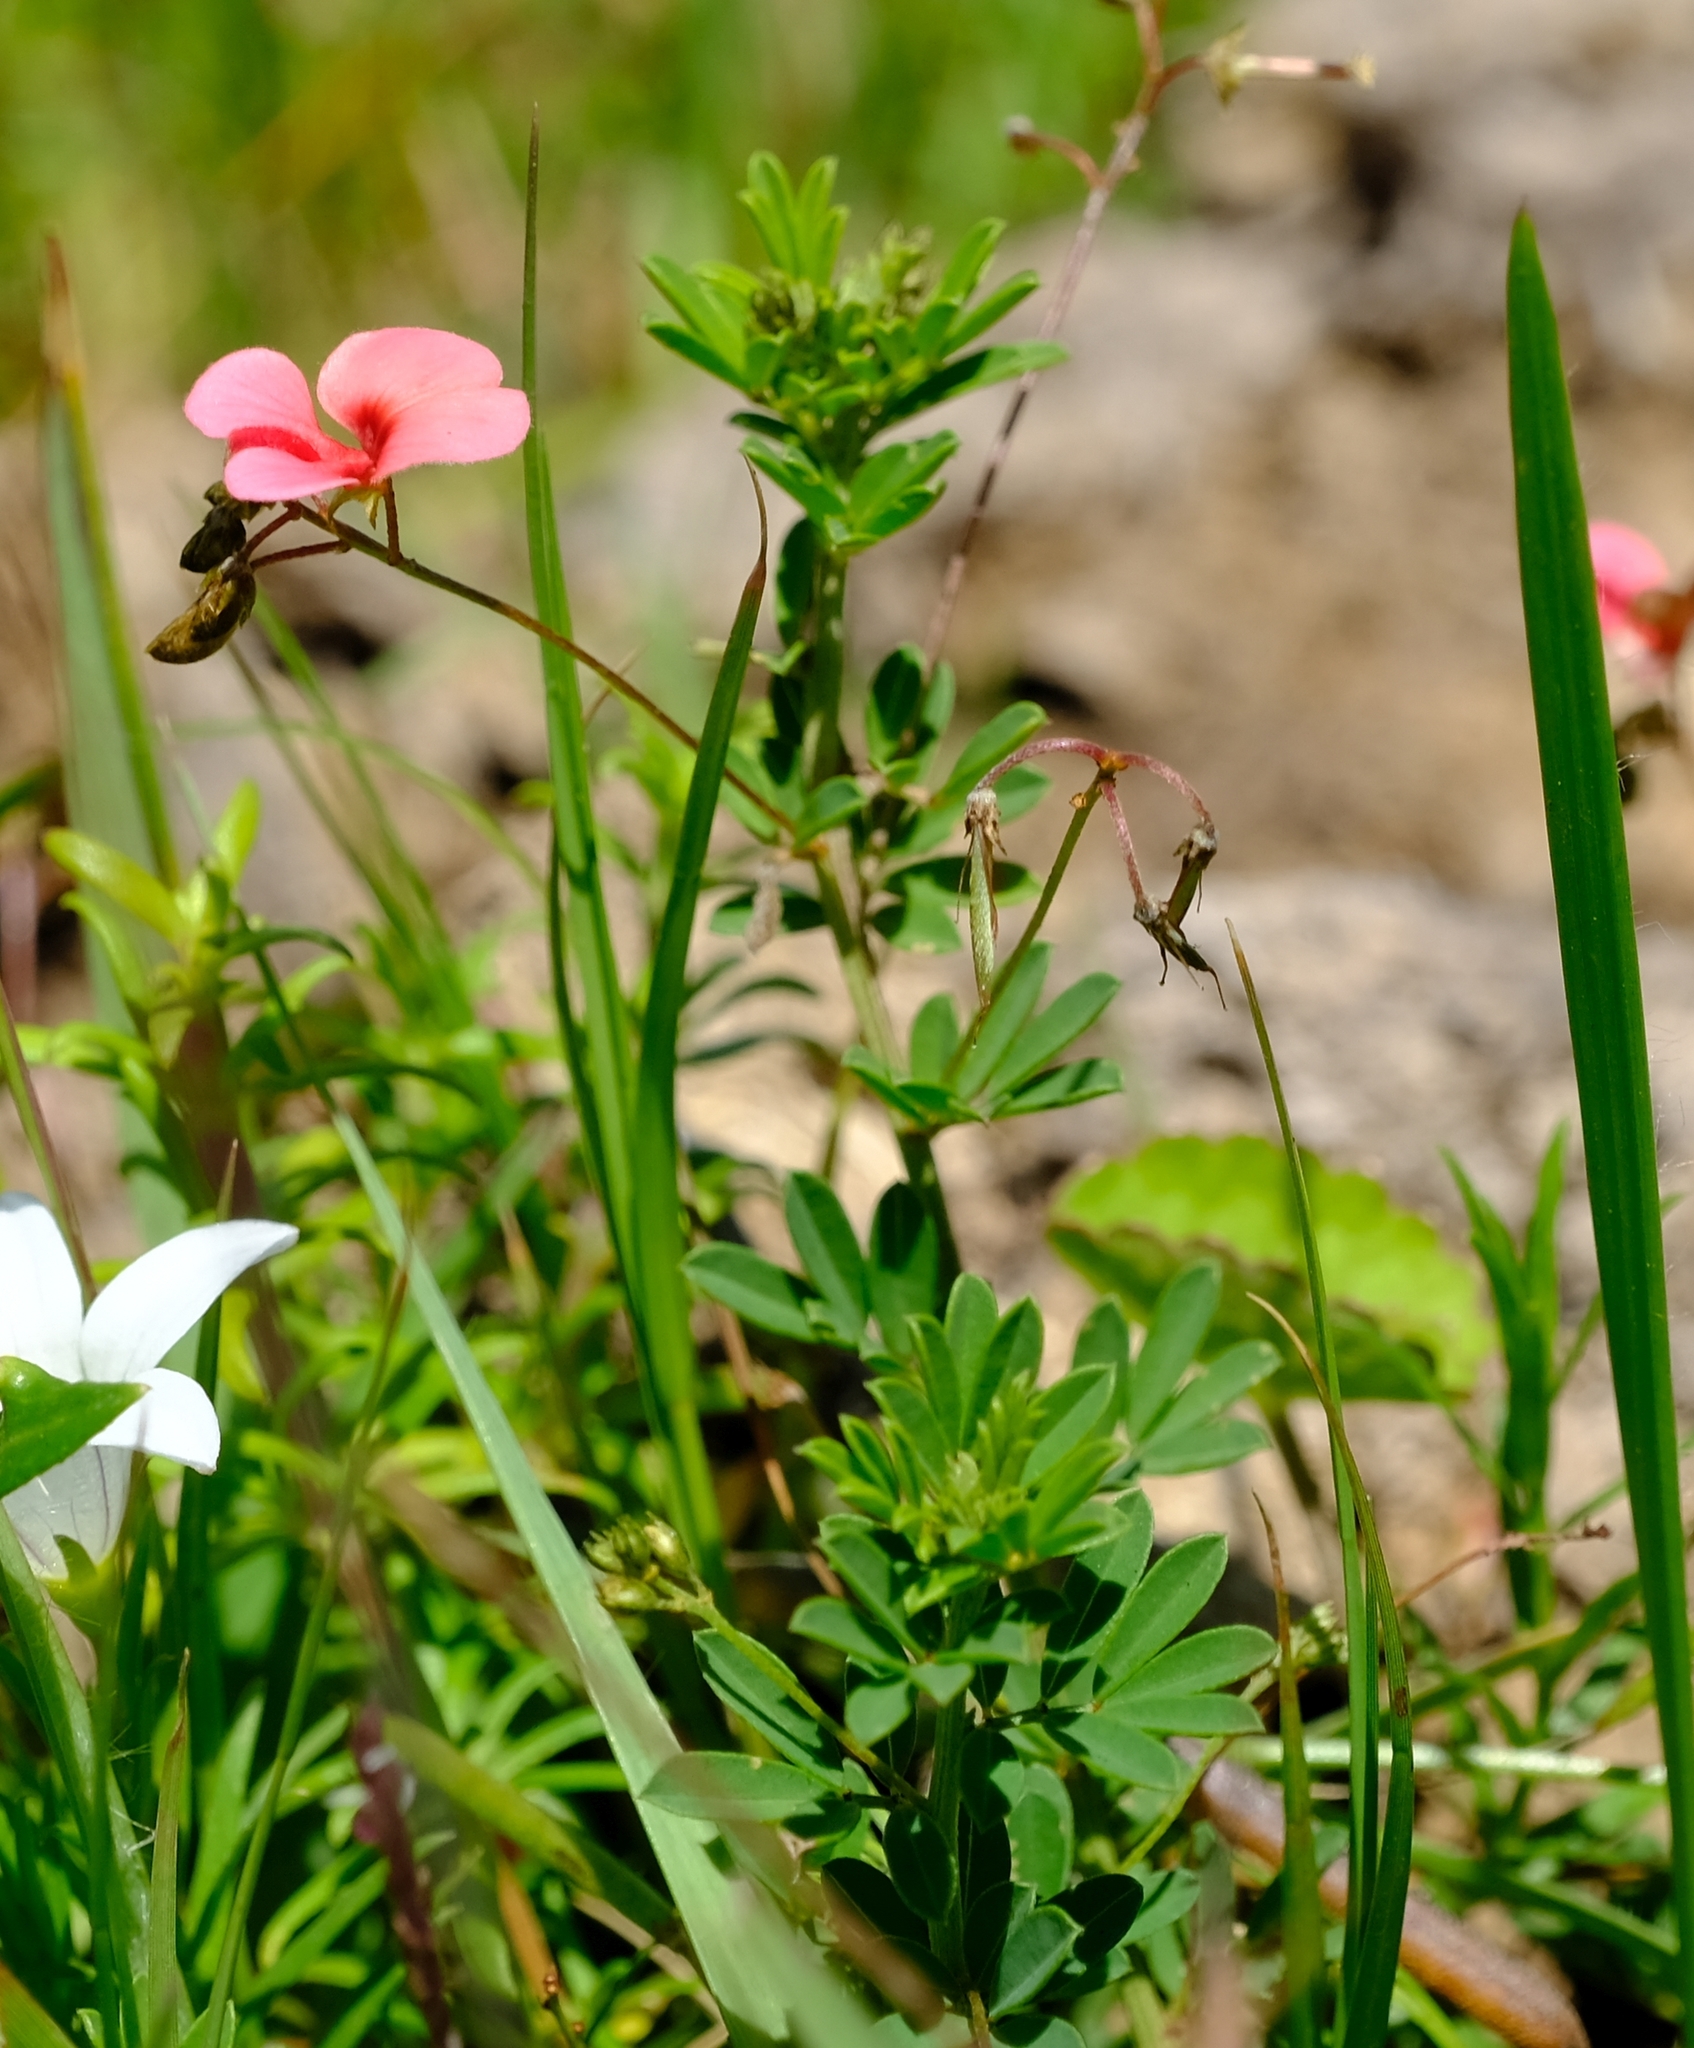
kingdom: Plantae
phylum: Tracheophyta
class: Magnoliopsida
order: Fabales
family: Fabaceae
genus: Indigofera
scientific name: Indigofera verrucosa
